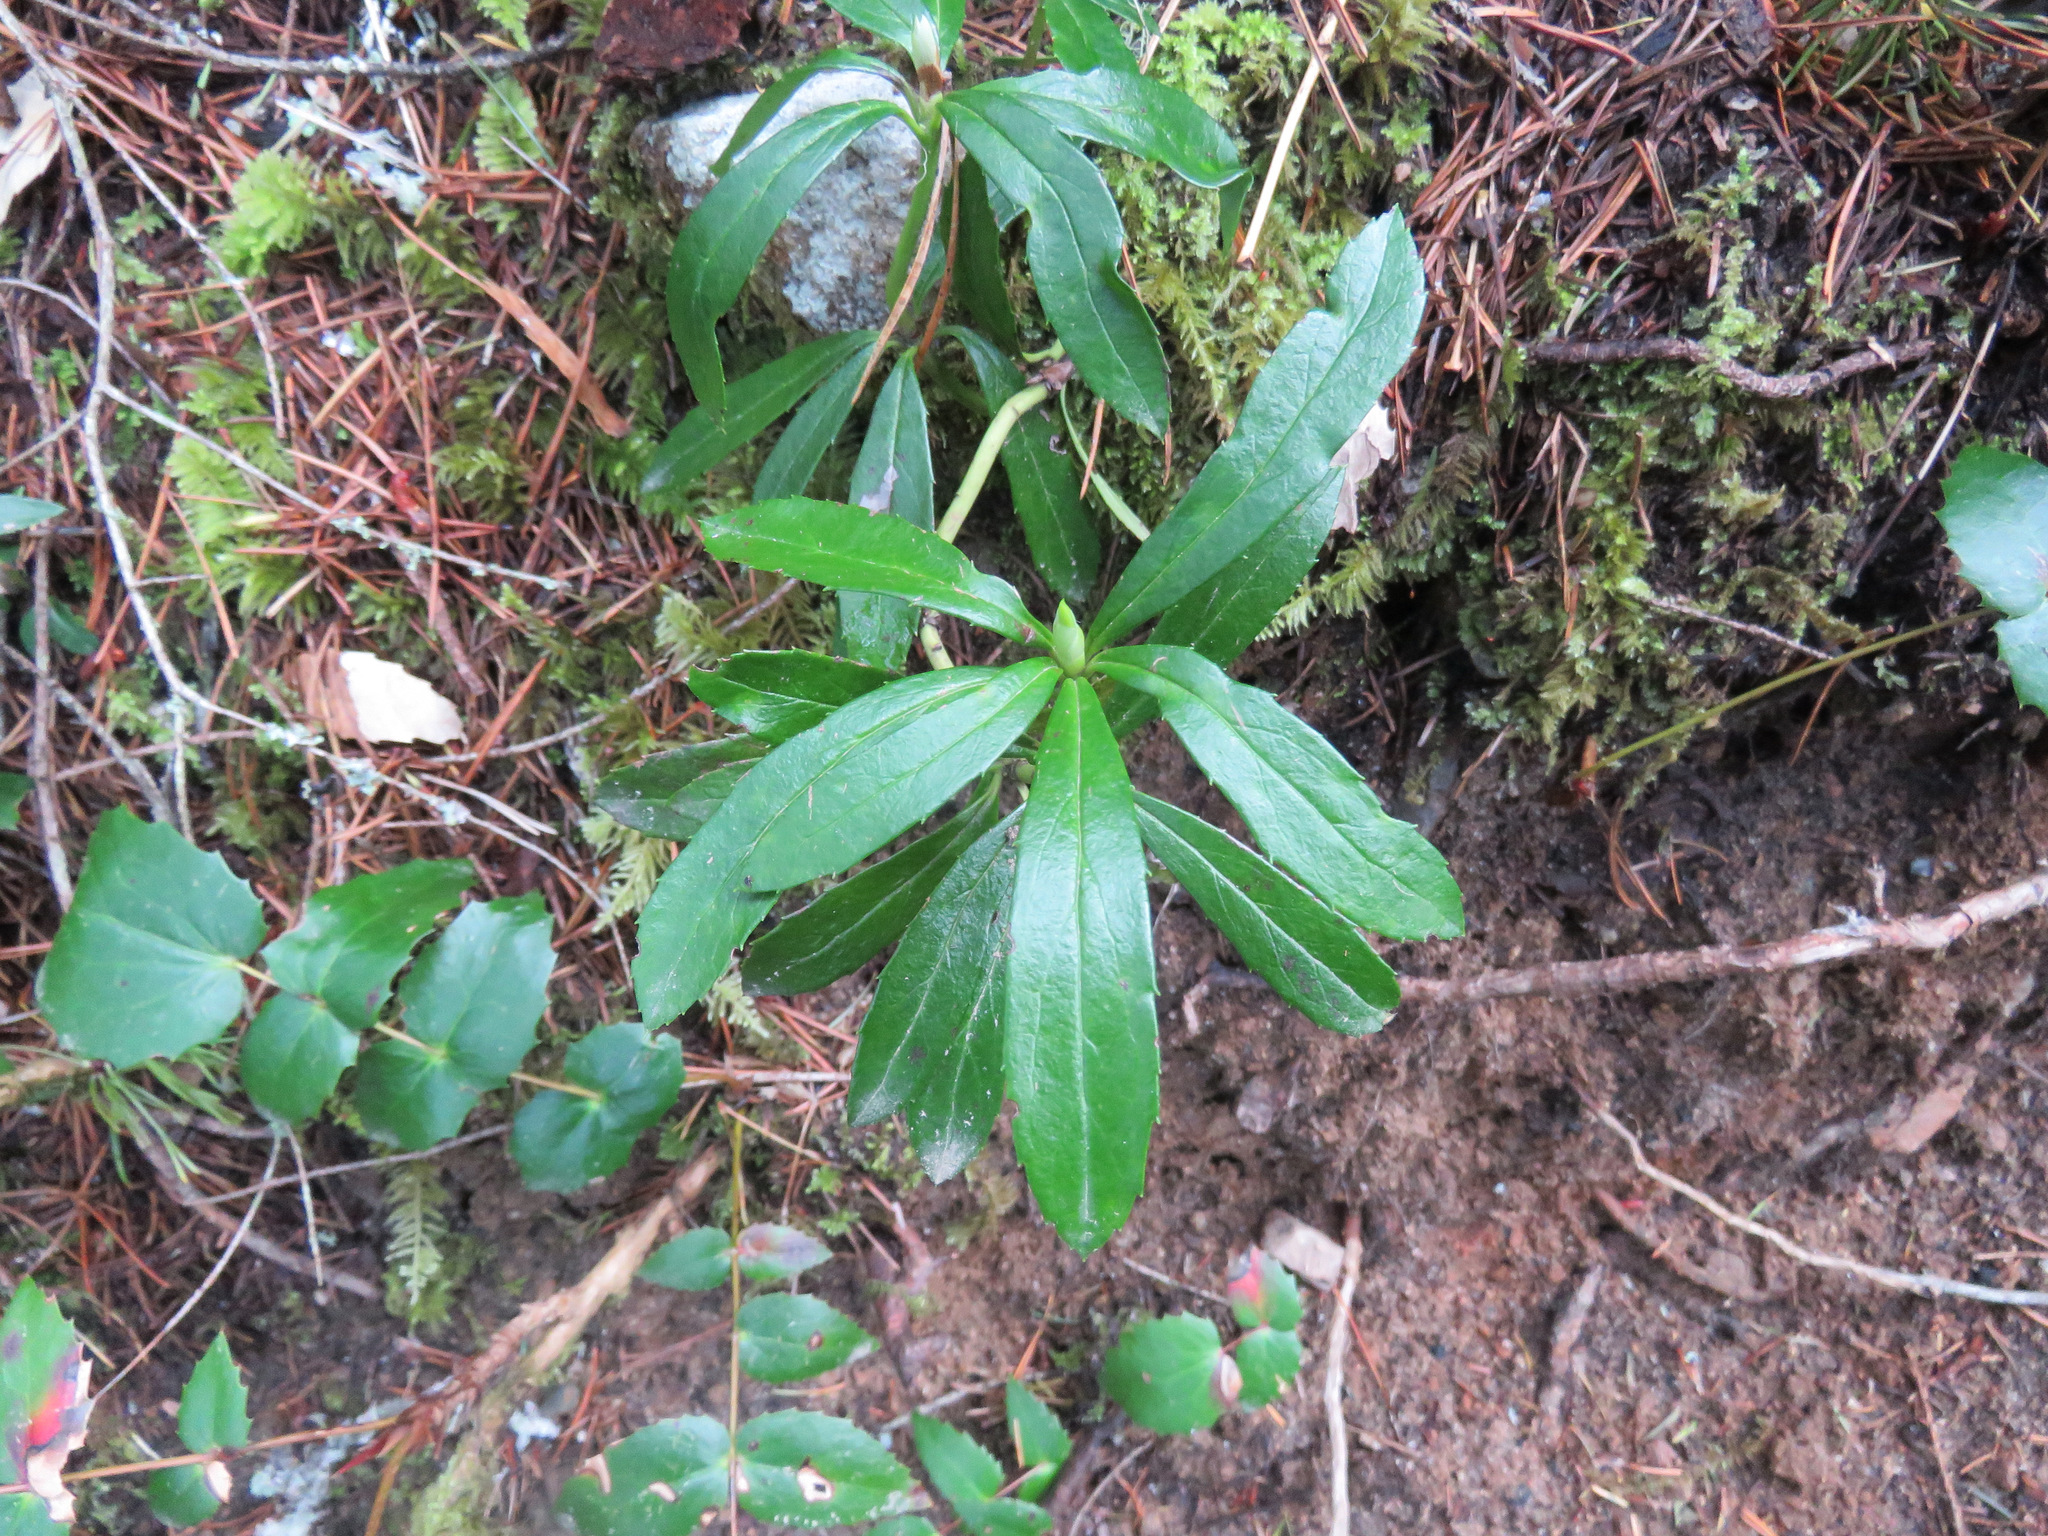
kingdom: Plantae
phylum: Tracheophyta
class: Magnoliopsida
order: Ericales
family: Ericaceae
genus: Chimaphila
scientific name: Chimaphila umbellata
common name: Pipsissewa
